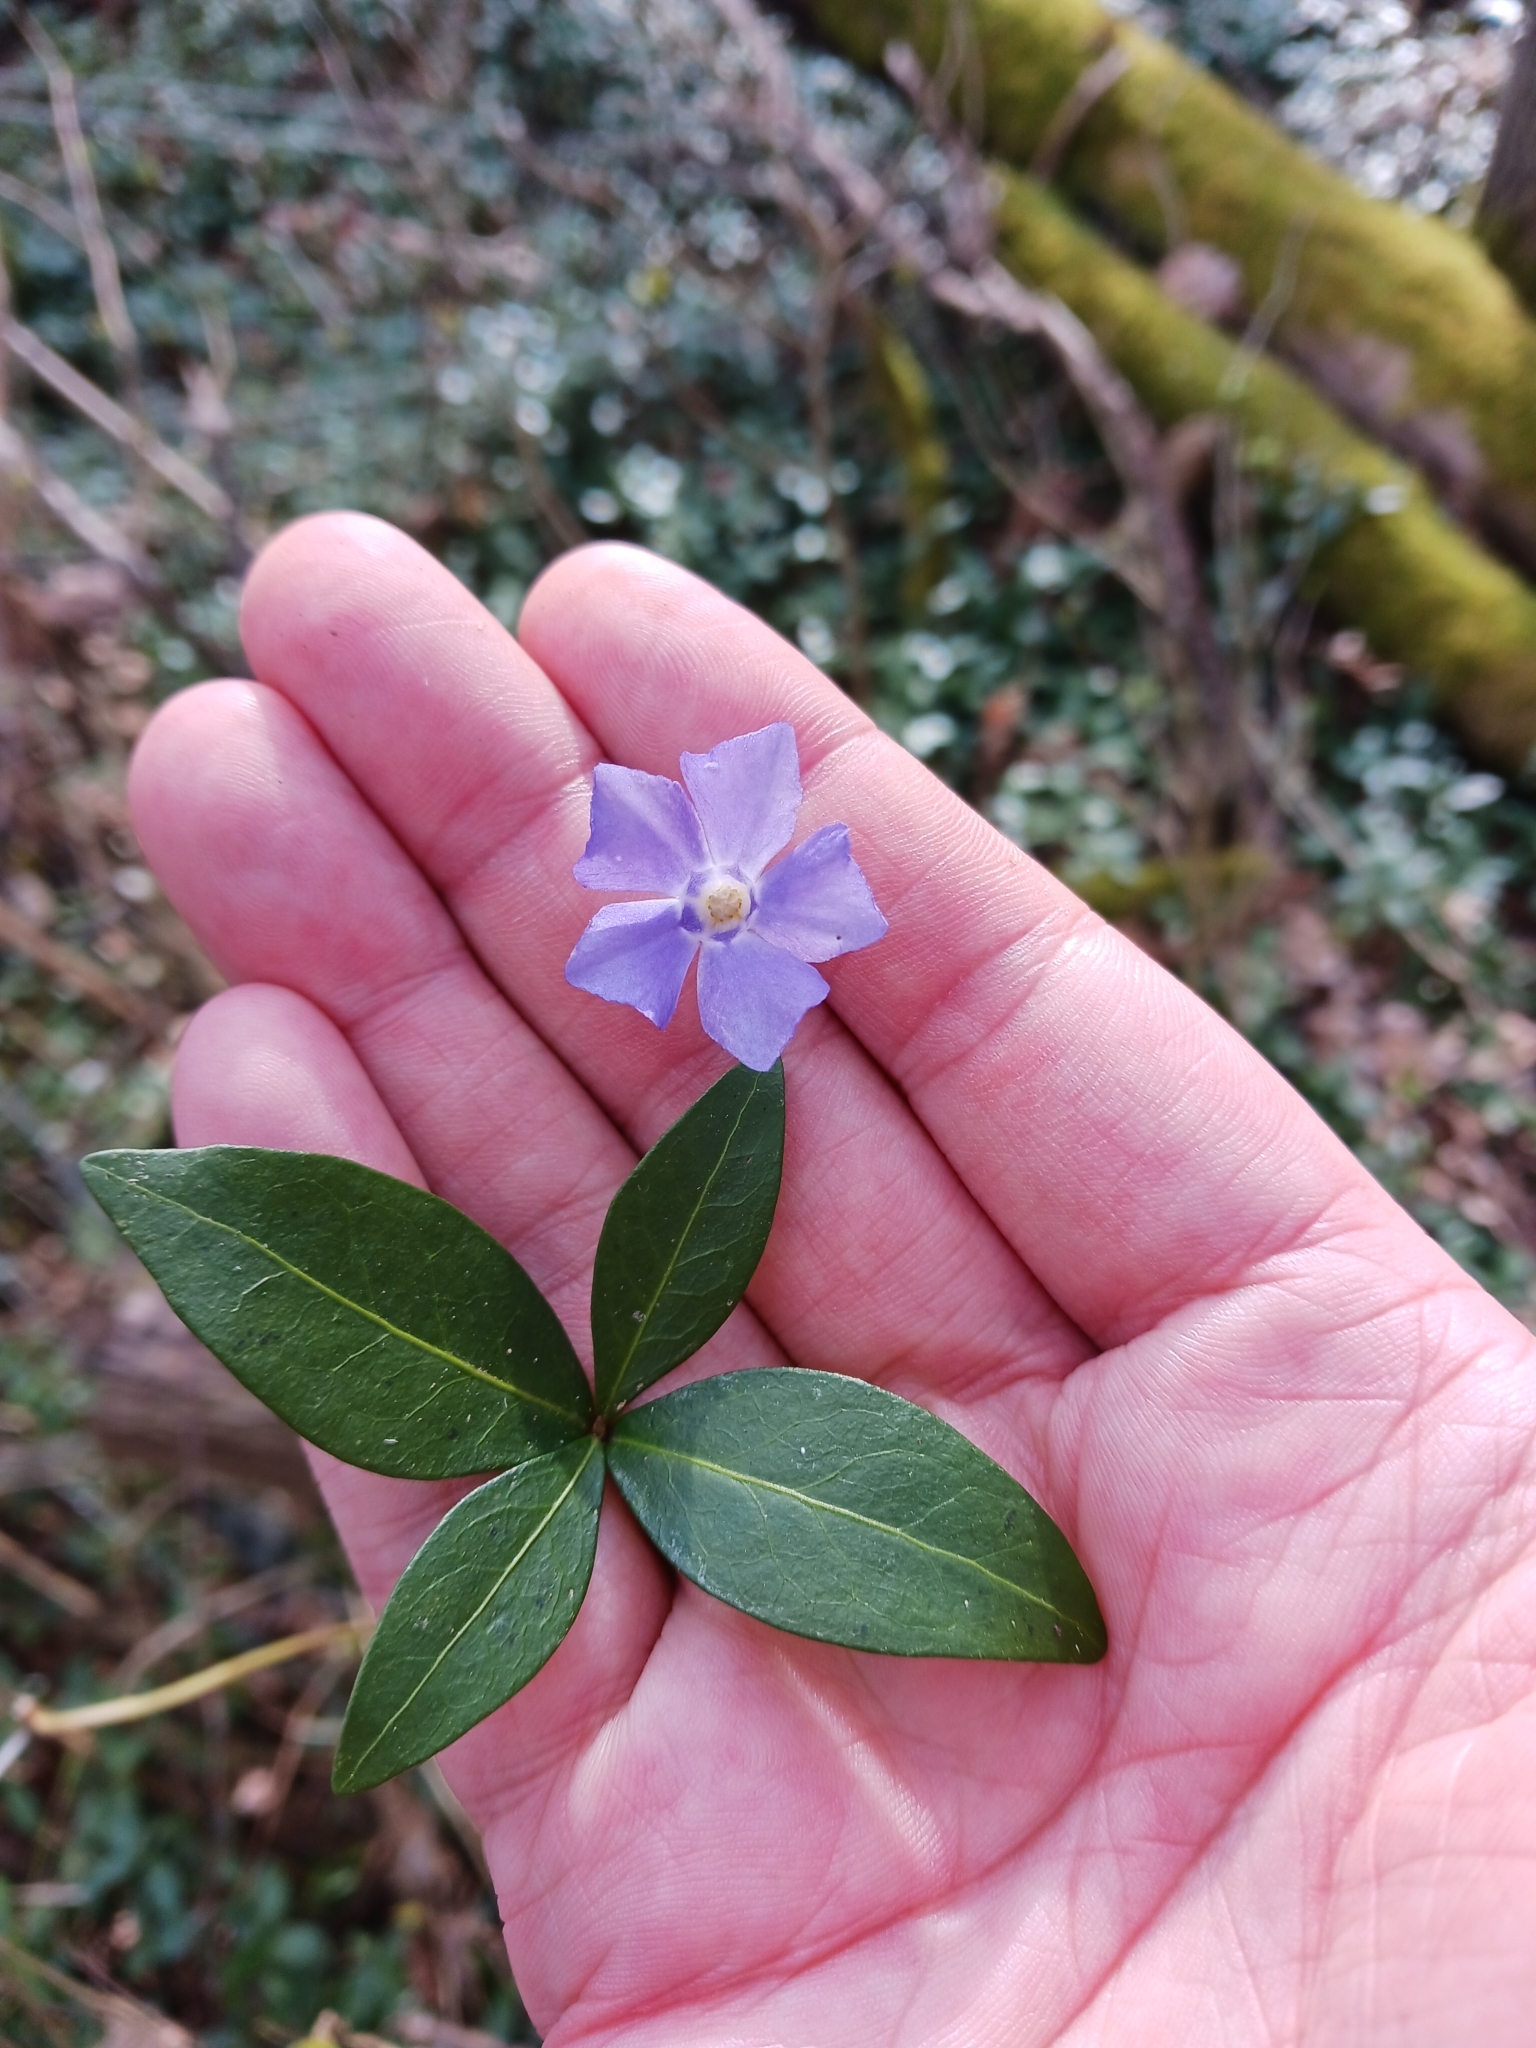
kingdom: Plantae
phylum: Tracheophyta
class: Magnoliopsida
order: Gentianales
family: Apocynaceae
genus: Vinca
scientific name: Vinca minor
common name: Lesser periwinkle
